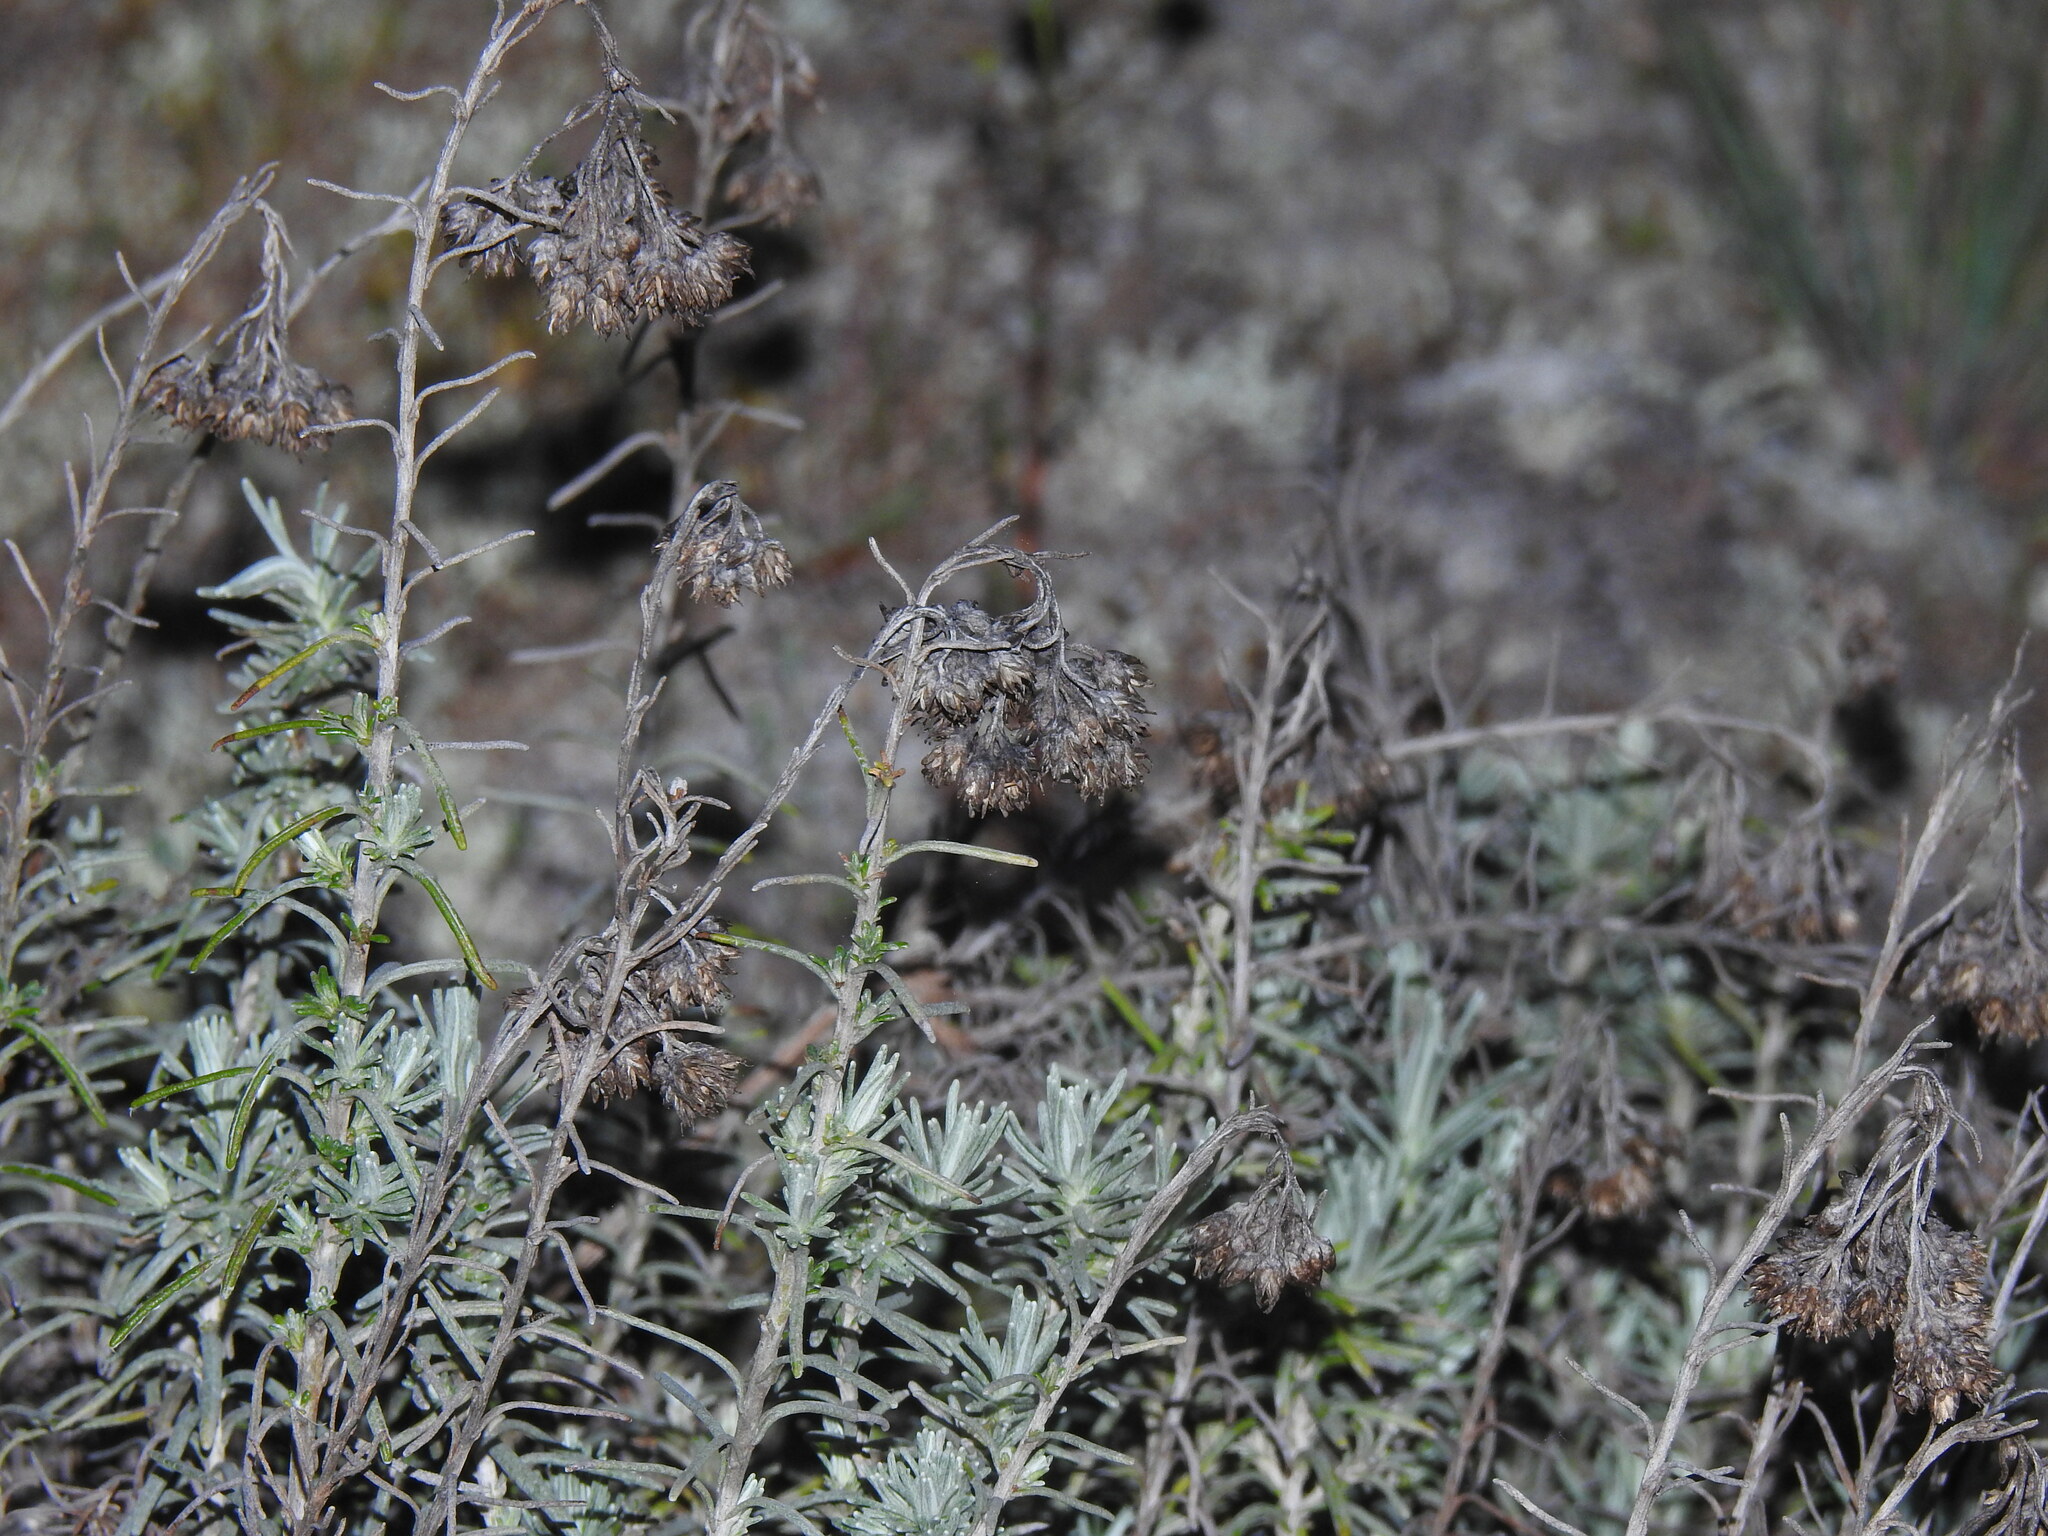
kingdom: Plantae
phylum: Tracheophyta
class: Magnoliopsida
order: Asterales
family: Asteraceae
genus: Helichrysum
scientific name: Helichrysum serotinum
